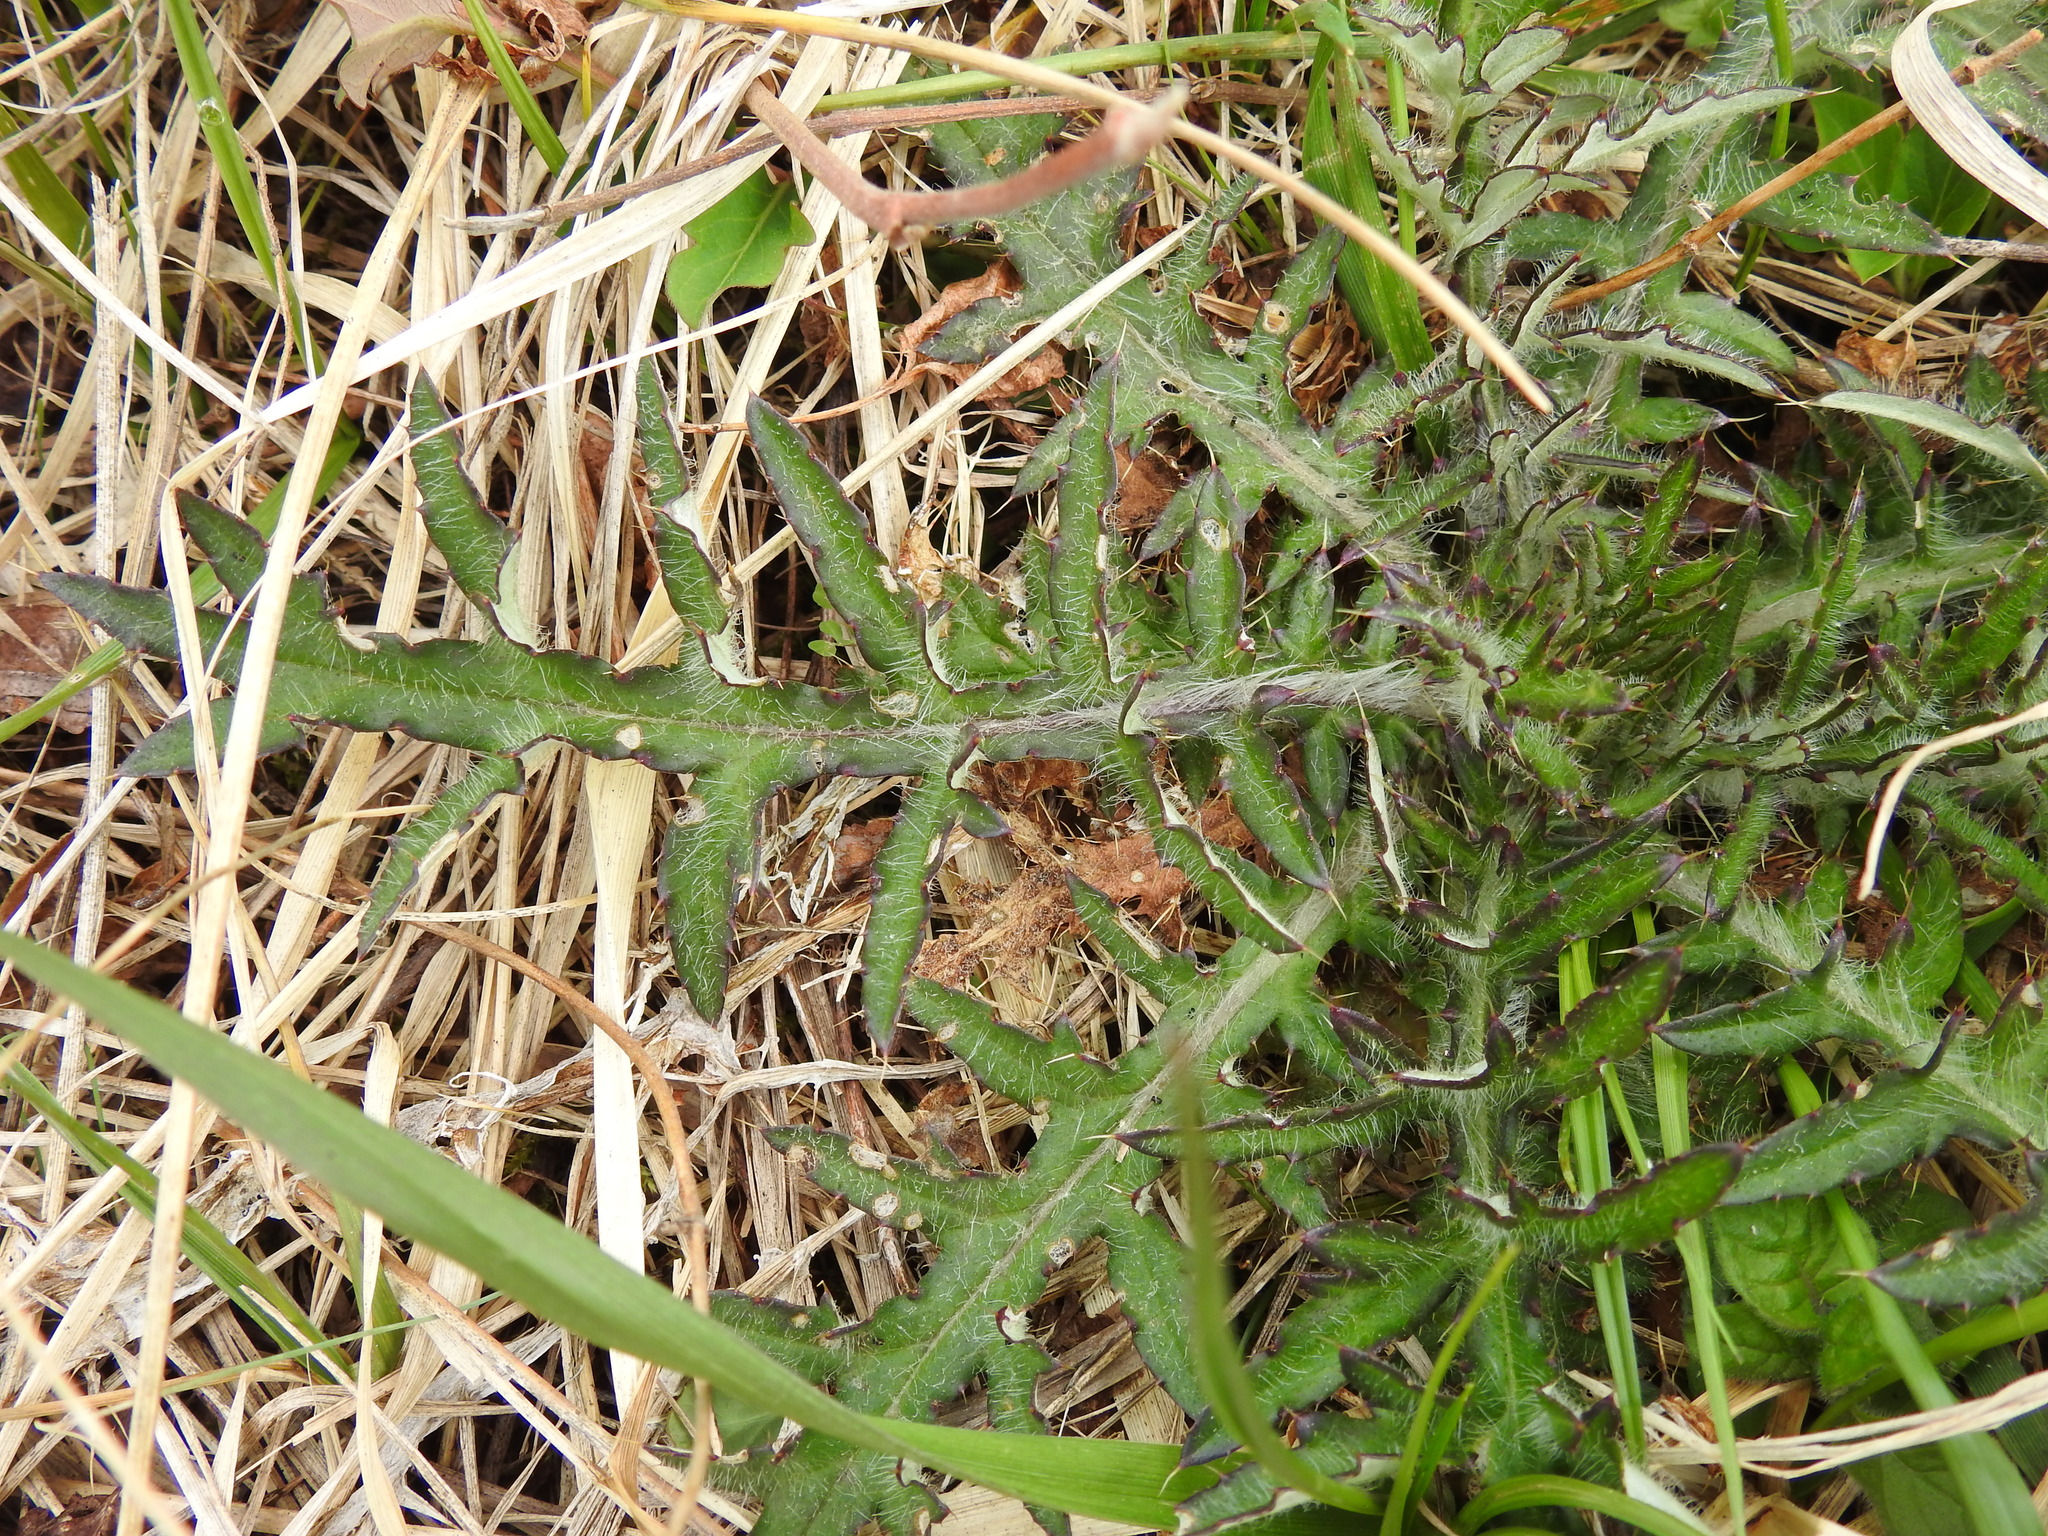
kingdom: Plantae
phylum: Tracheophyta
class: Magnoliopsida
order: Asterales
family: Asteraceae
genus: Cirsium
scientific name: Cirsium discolor
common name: Field thistle
